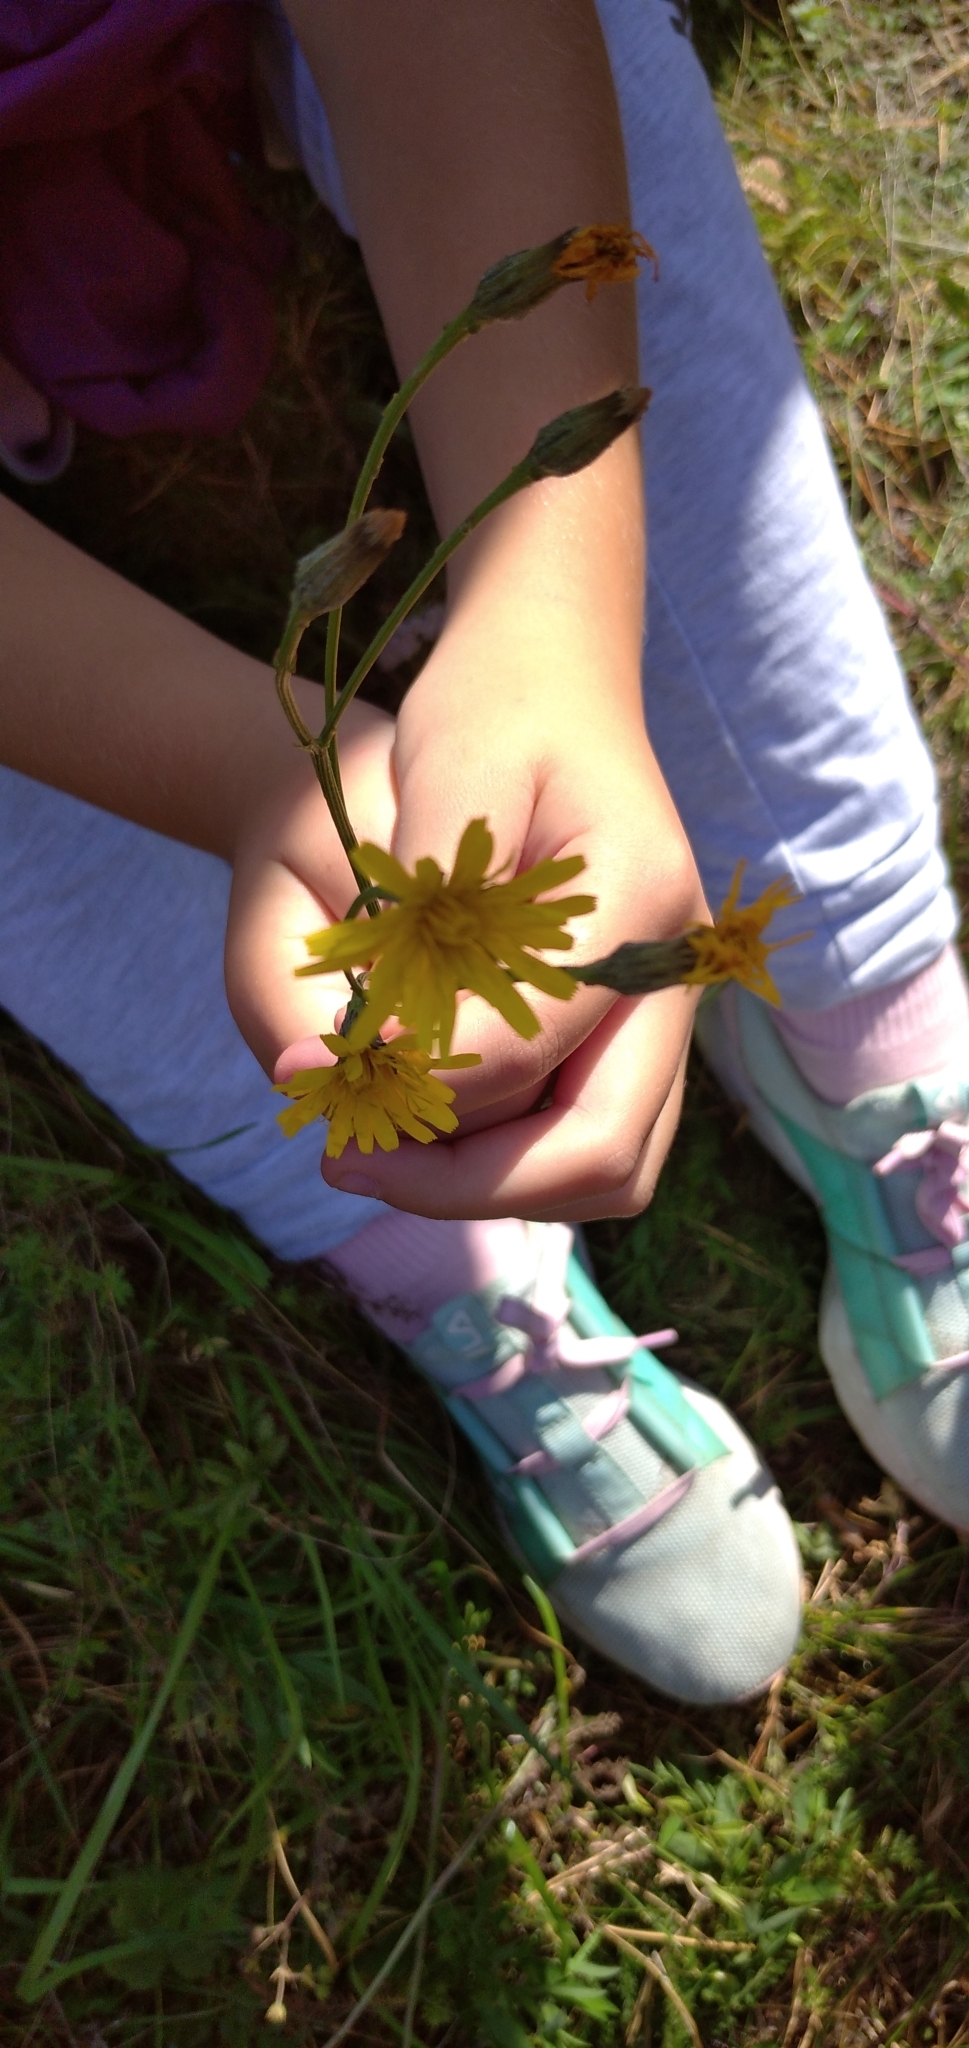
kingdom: Plantae
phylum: Tracheophyta
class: Magnoliopsida
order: Asterales
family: Asteraceae
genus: Scorzoneroides
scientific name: Scorzoneroides autumnalis
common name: Autumn hawkbit
